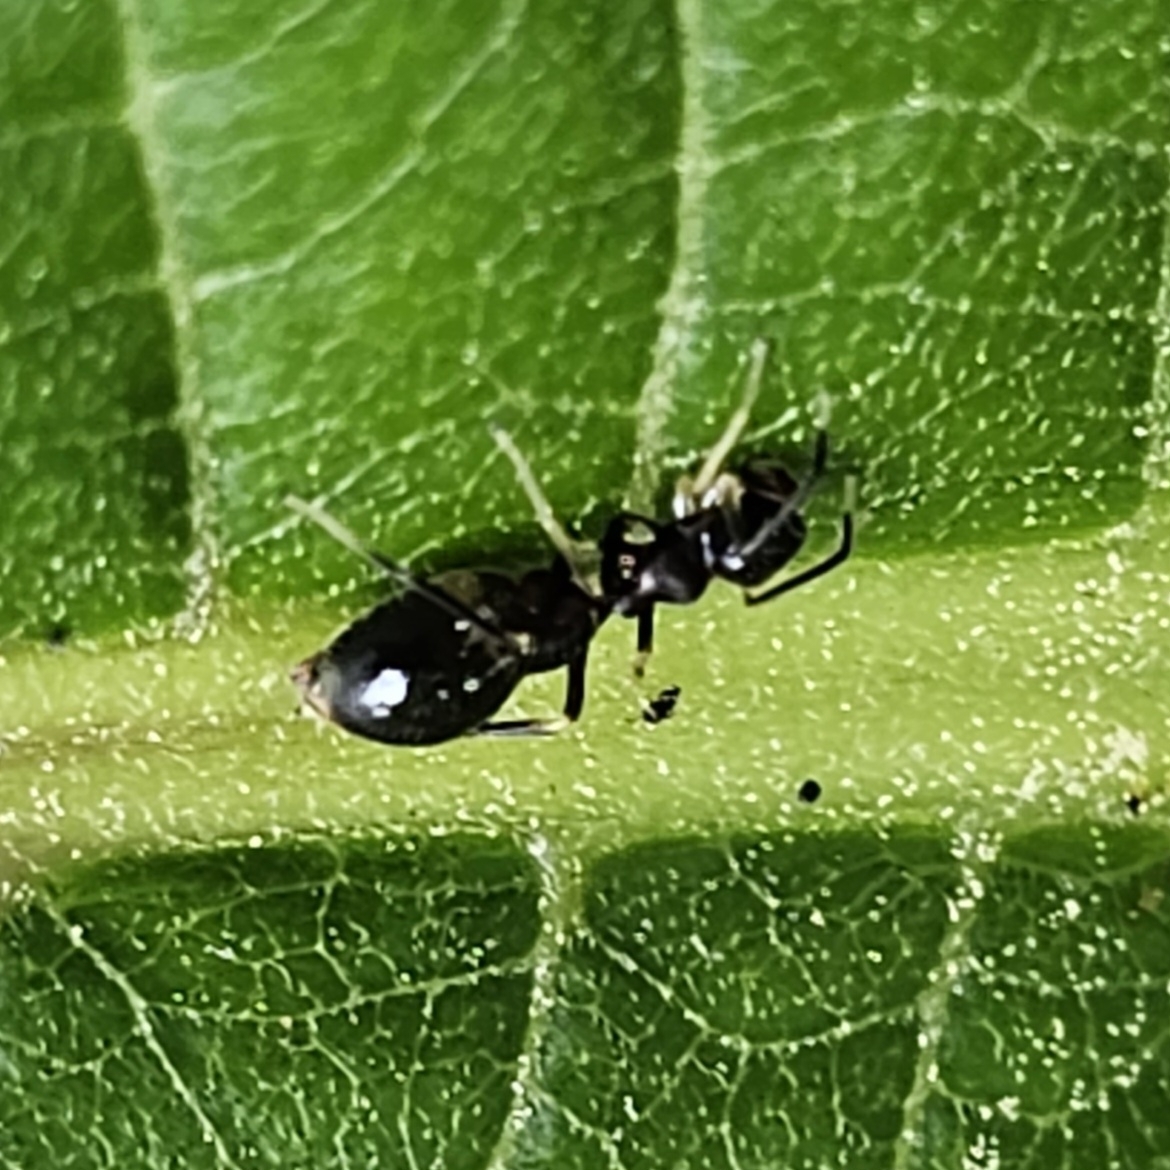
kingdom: Animalia
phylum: Arthropoda
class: Arachnida
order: Araneae
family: Salticidae
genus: Synemosyna
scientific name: Synemosyna formica
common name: Slender ant-mimic jumping spider
